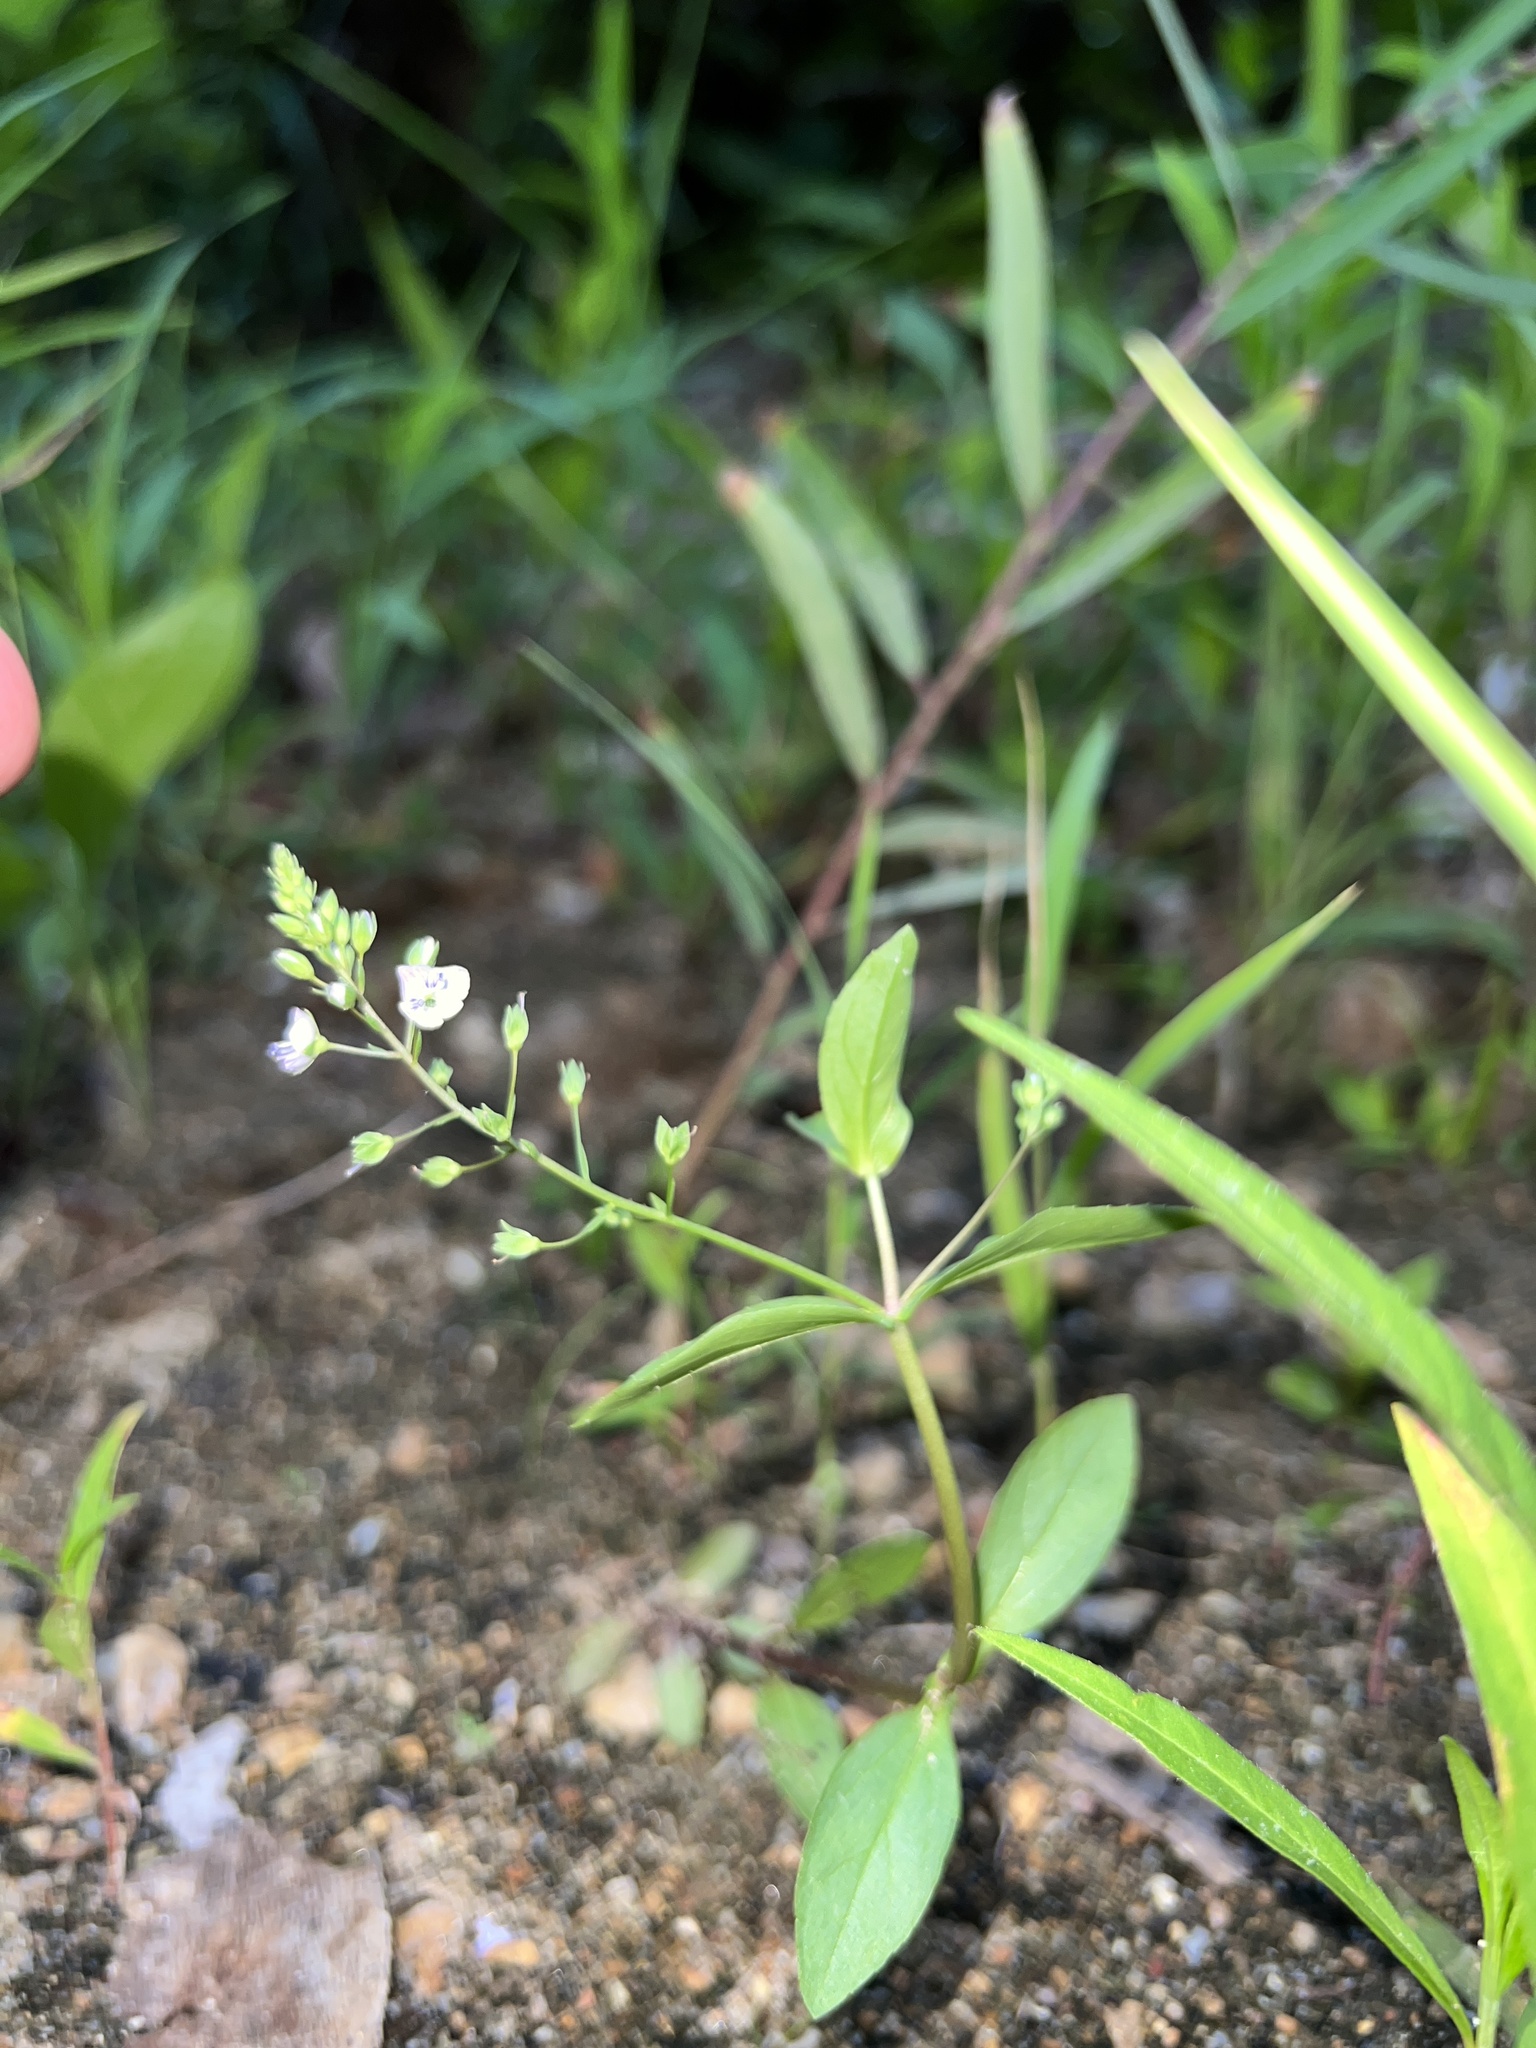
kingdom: Plantae
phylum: Tracheophyta
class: Magnoliopsida
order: Lamiales
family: Plantaginaceae
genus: Veronica
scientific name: Veronica catenata
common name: Pink water-speedwell
